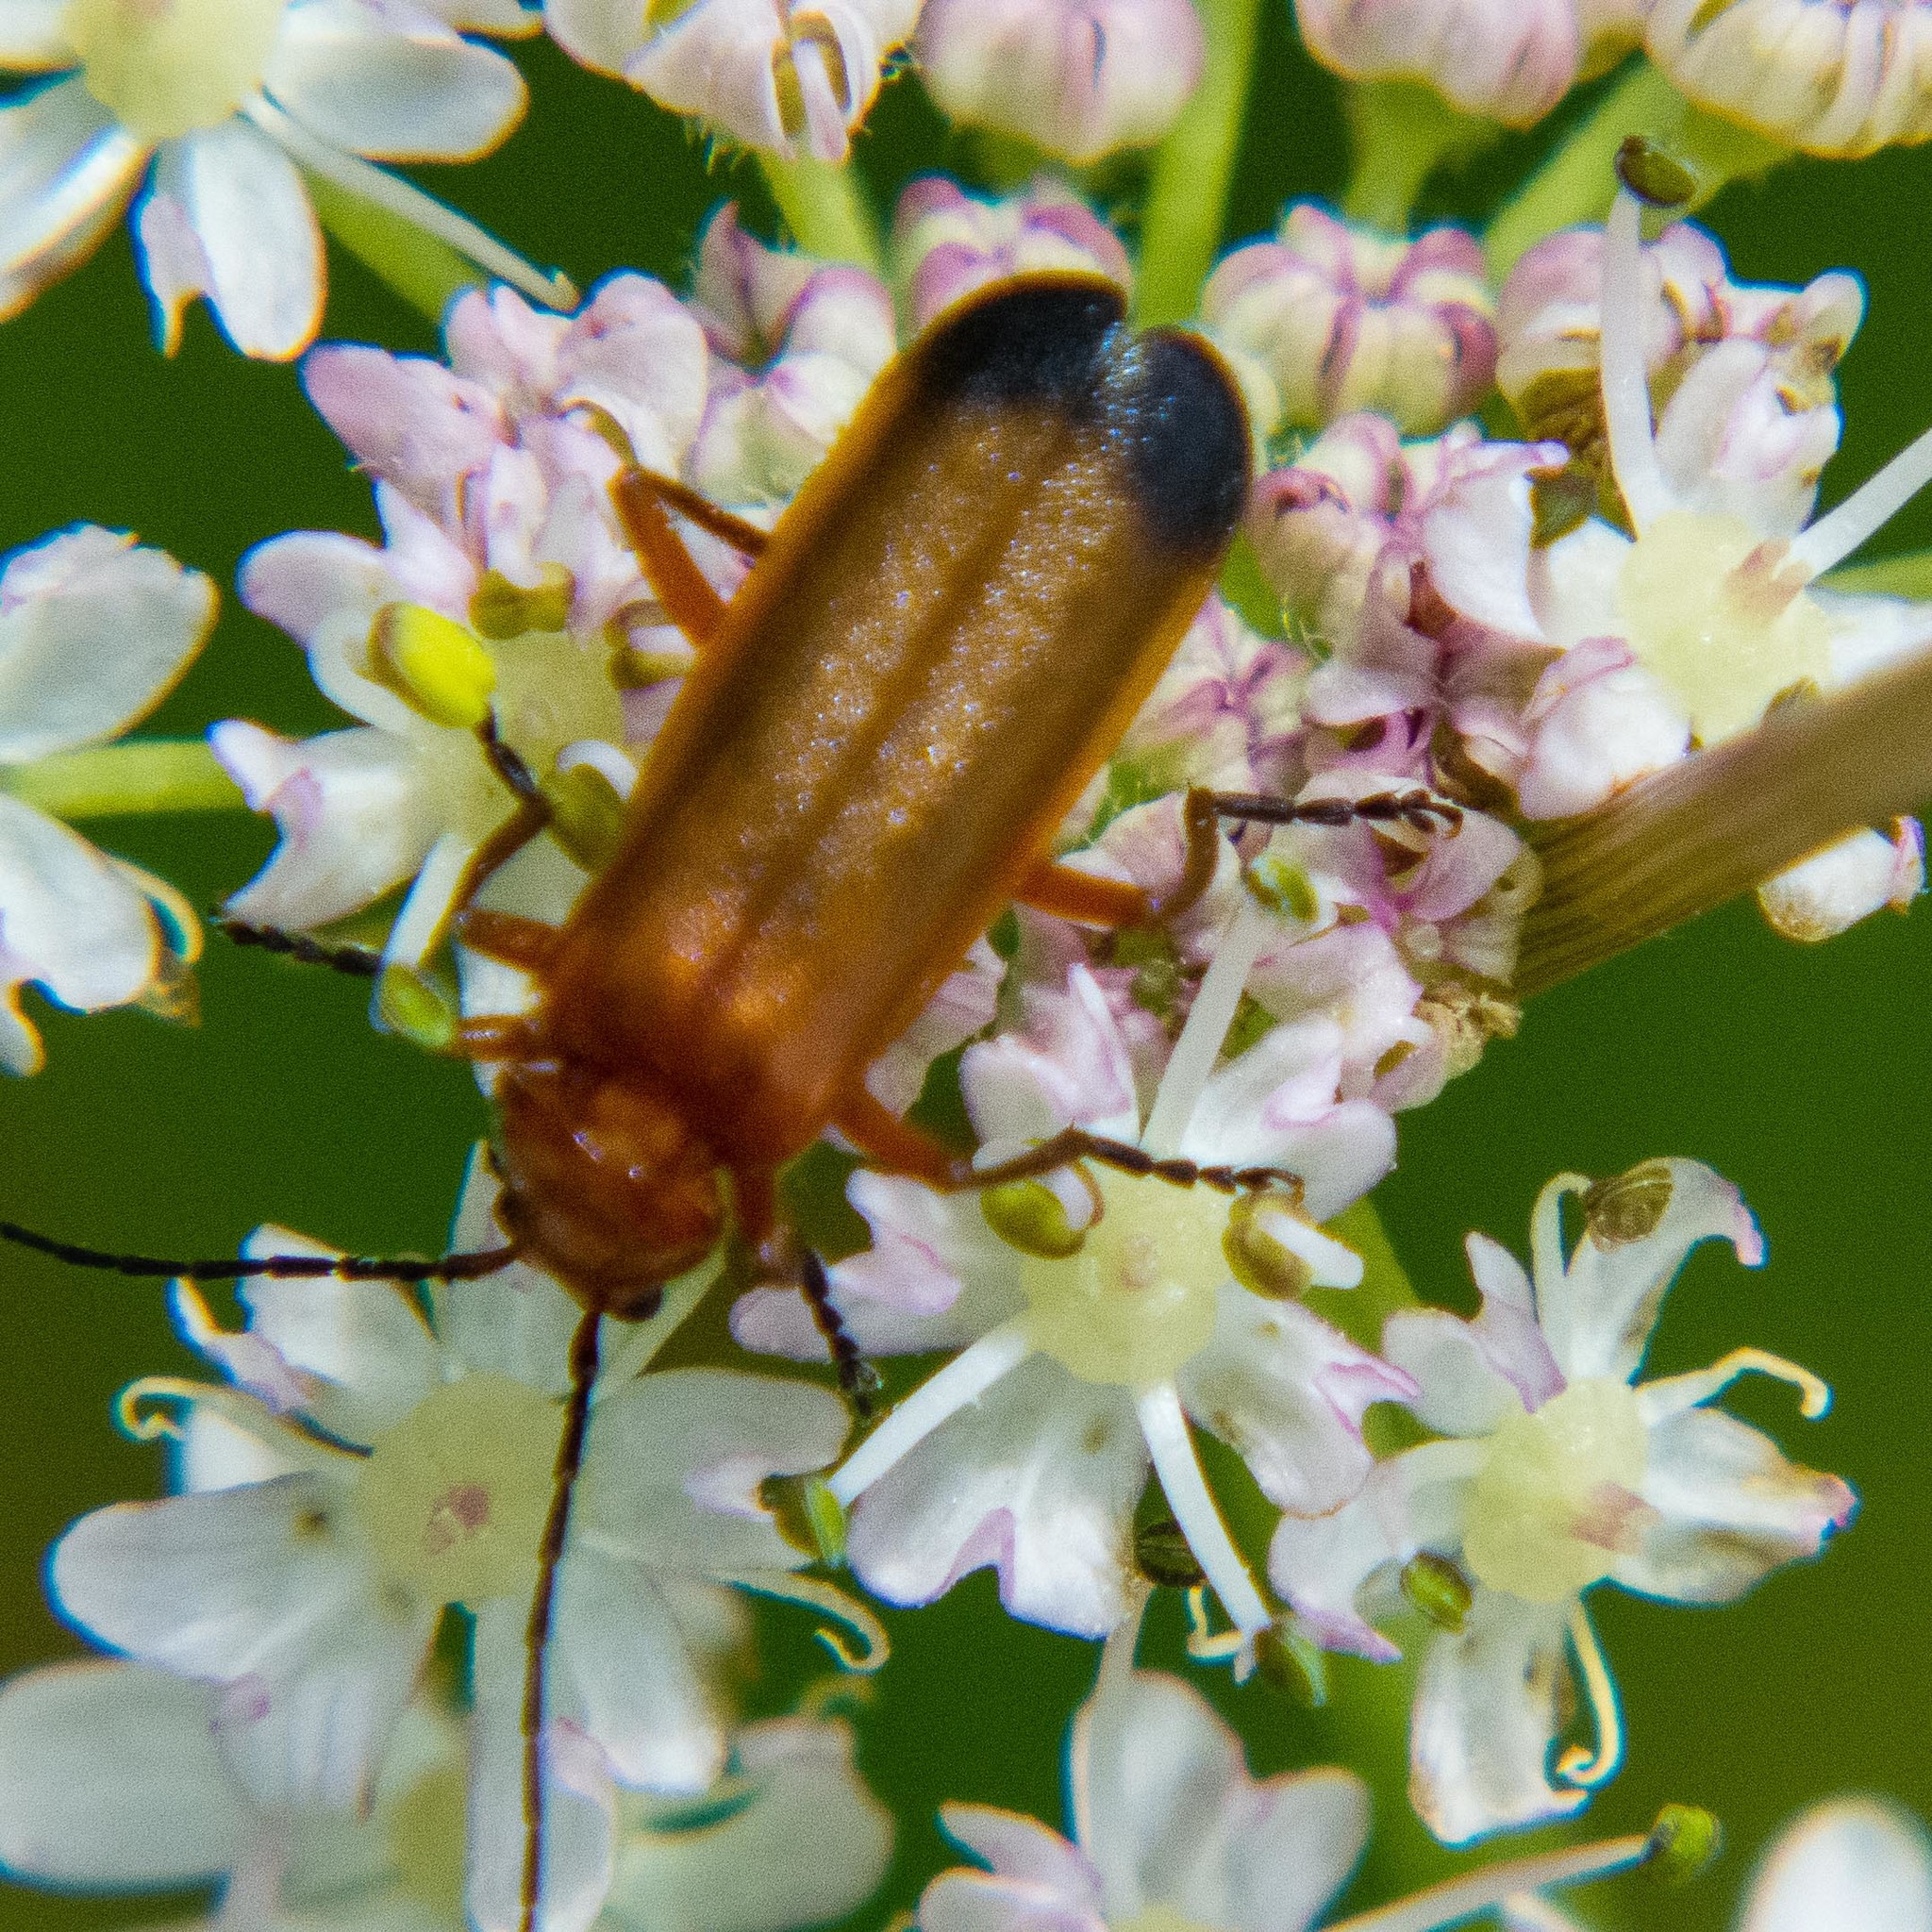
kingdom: Animalia
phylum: Arthropoda
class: Insecta
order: Coleoptera
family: Cantharidae
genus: Rhagonycha
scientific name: Rhagonycha fulva
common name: Common red soldier beetle
